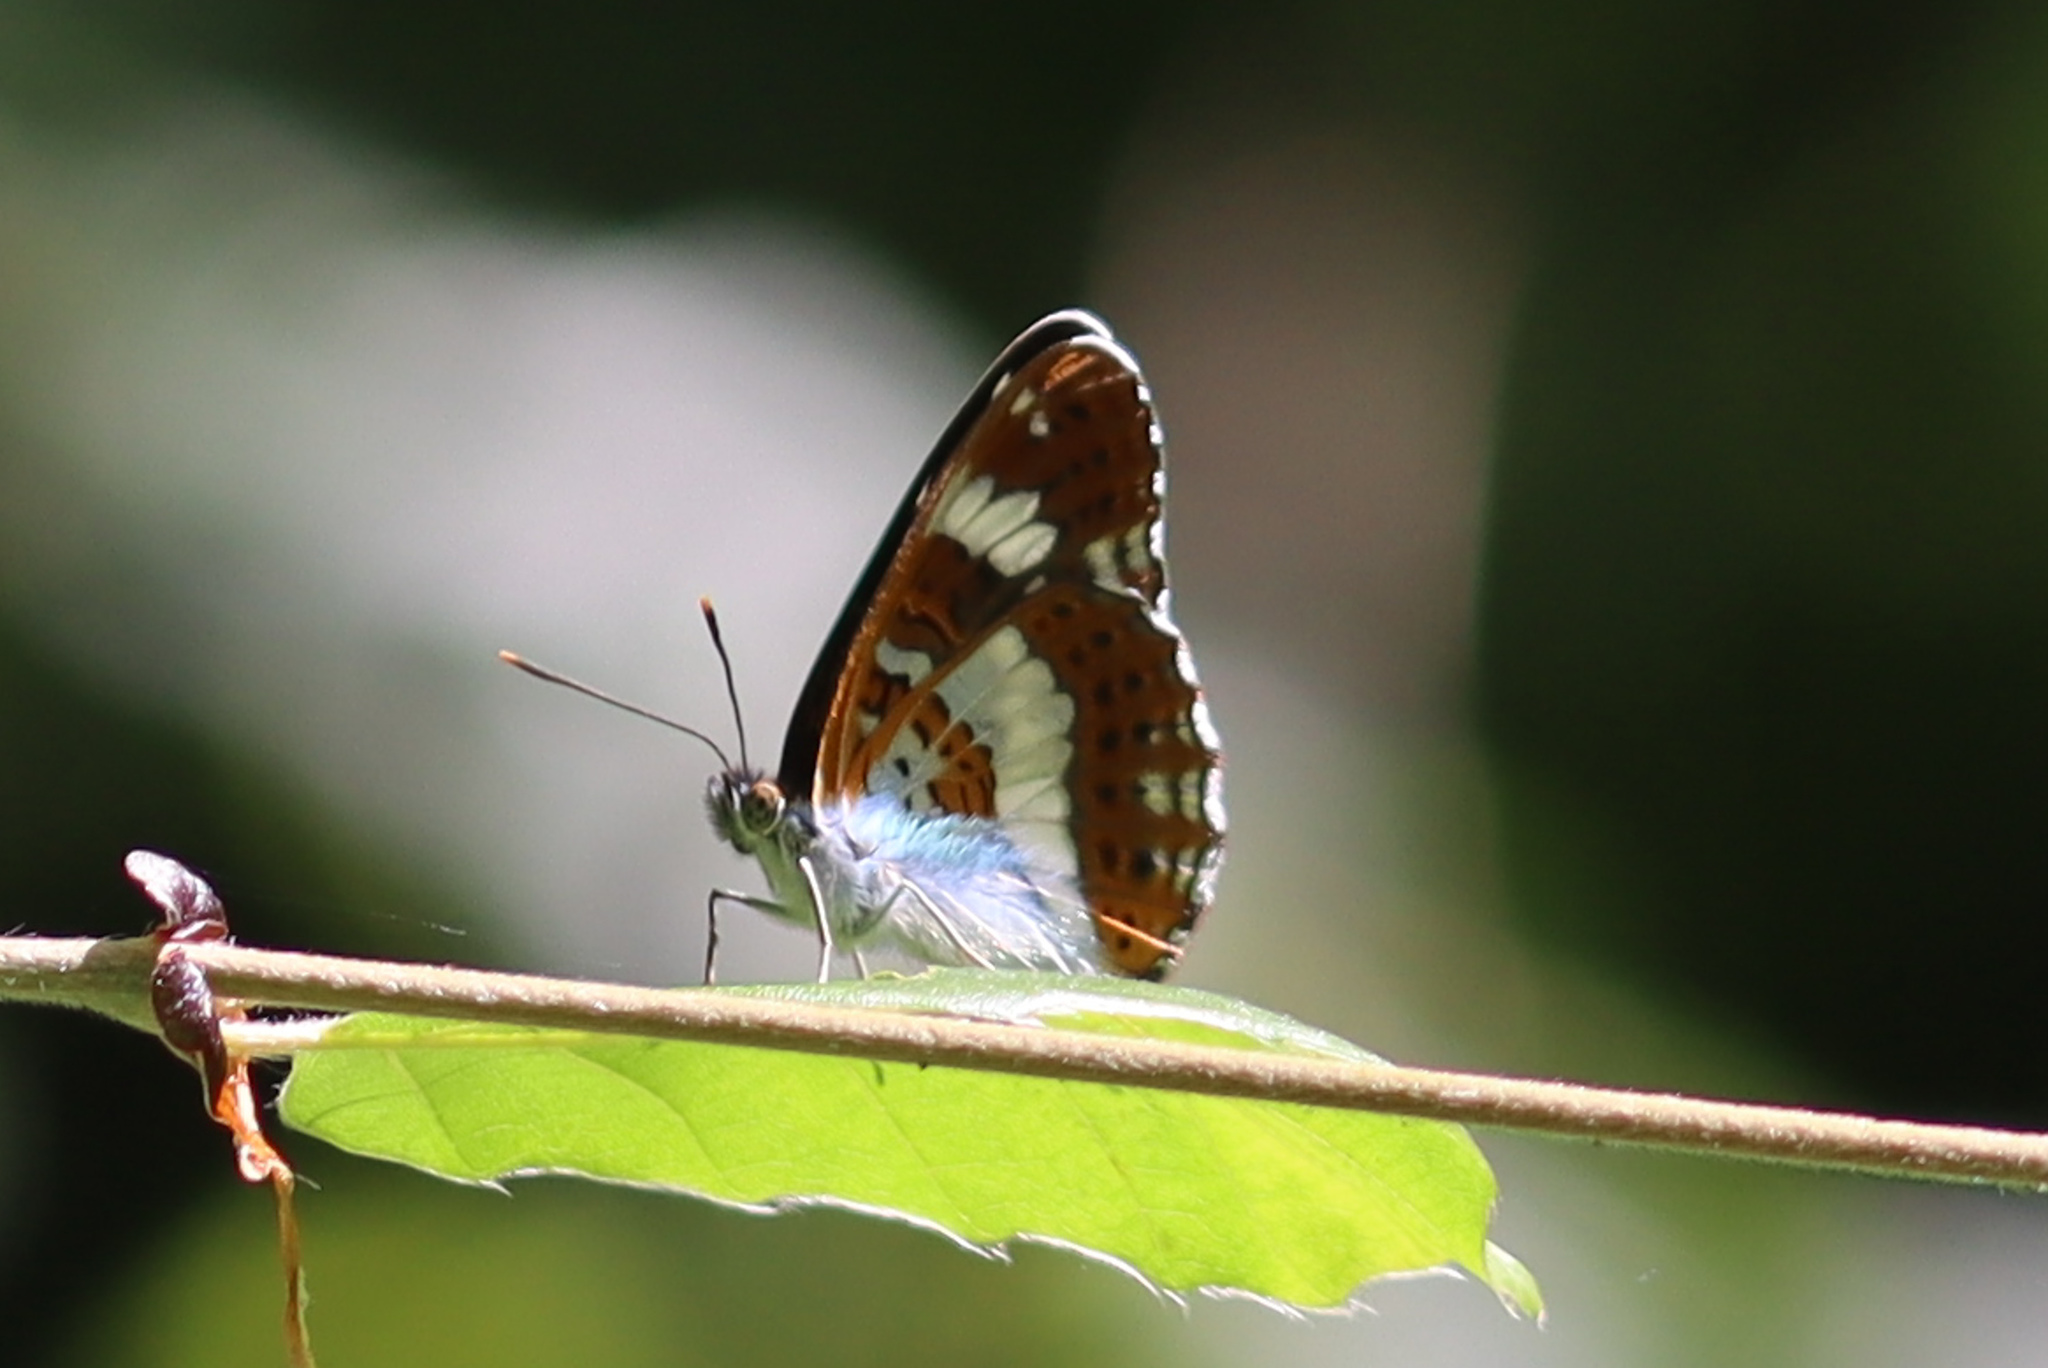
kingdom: Animalia
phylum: Arthropoda
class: Insecta
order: Lepidoptera
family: Nymphalidae
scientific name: Nymphalidae
